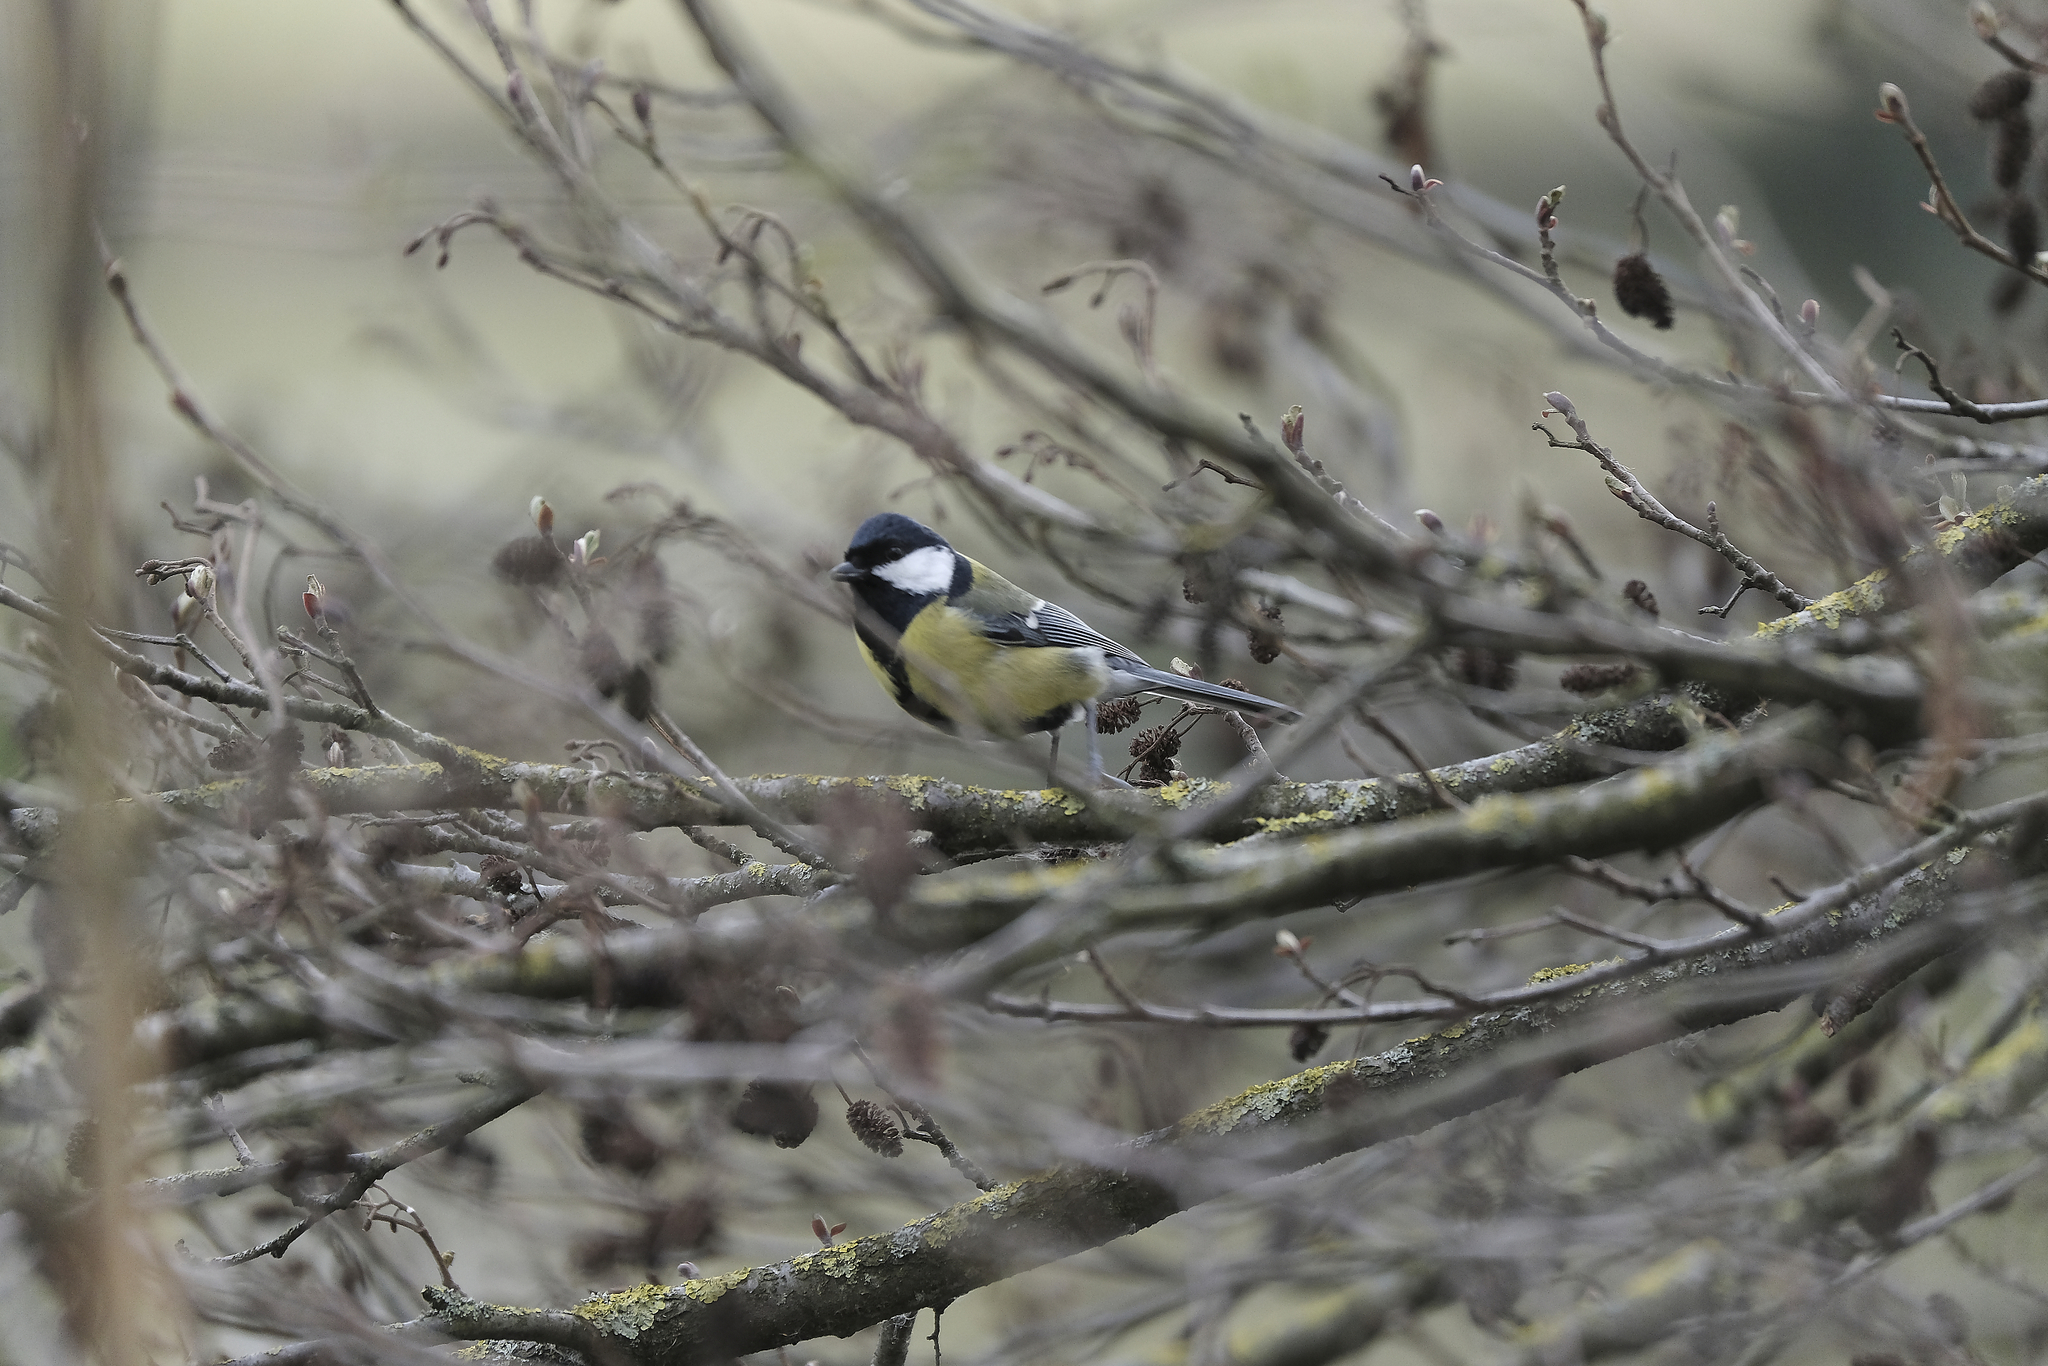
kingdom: Animalia
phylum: Chordata
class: Aves
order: Passeriformes
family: Paridae
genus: Parus
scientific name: Parus major
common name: Great tit
